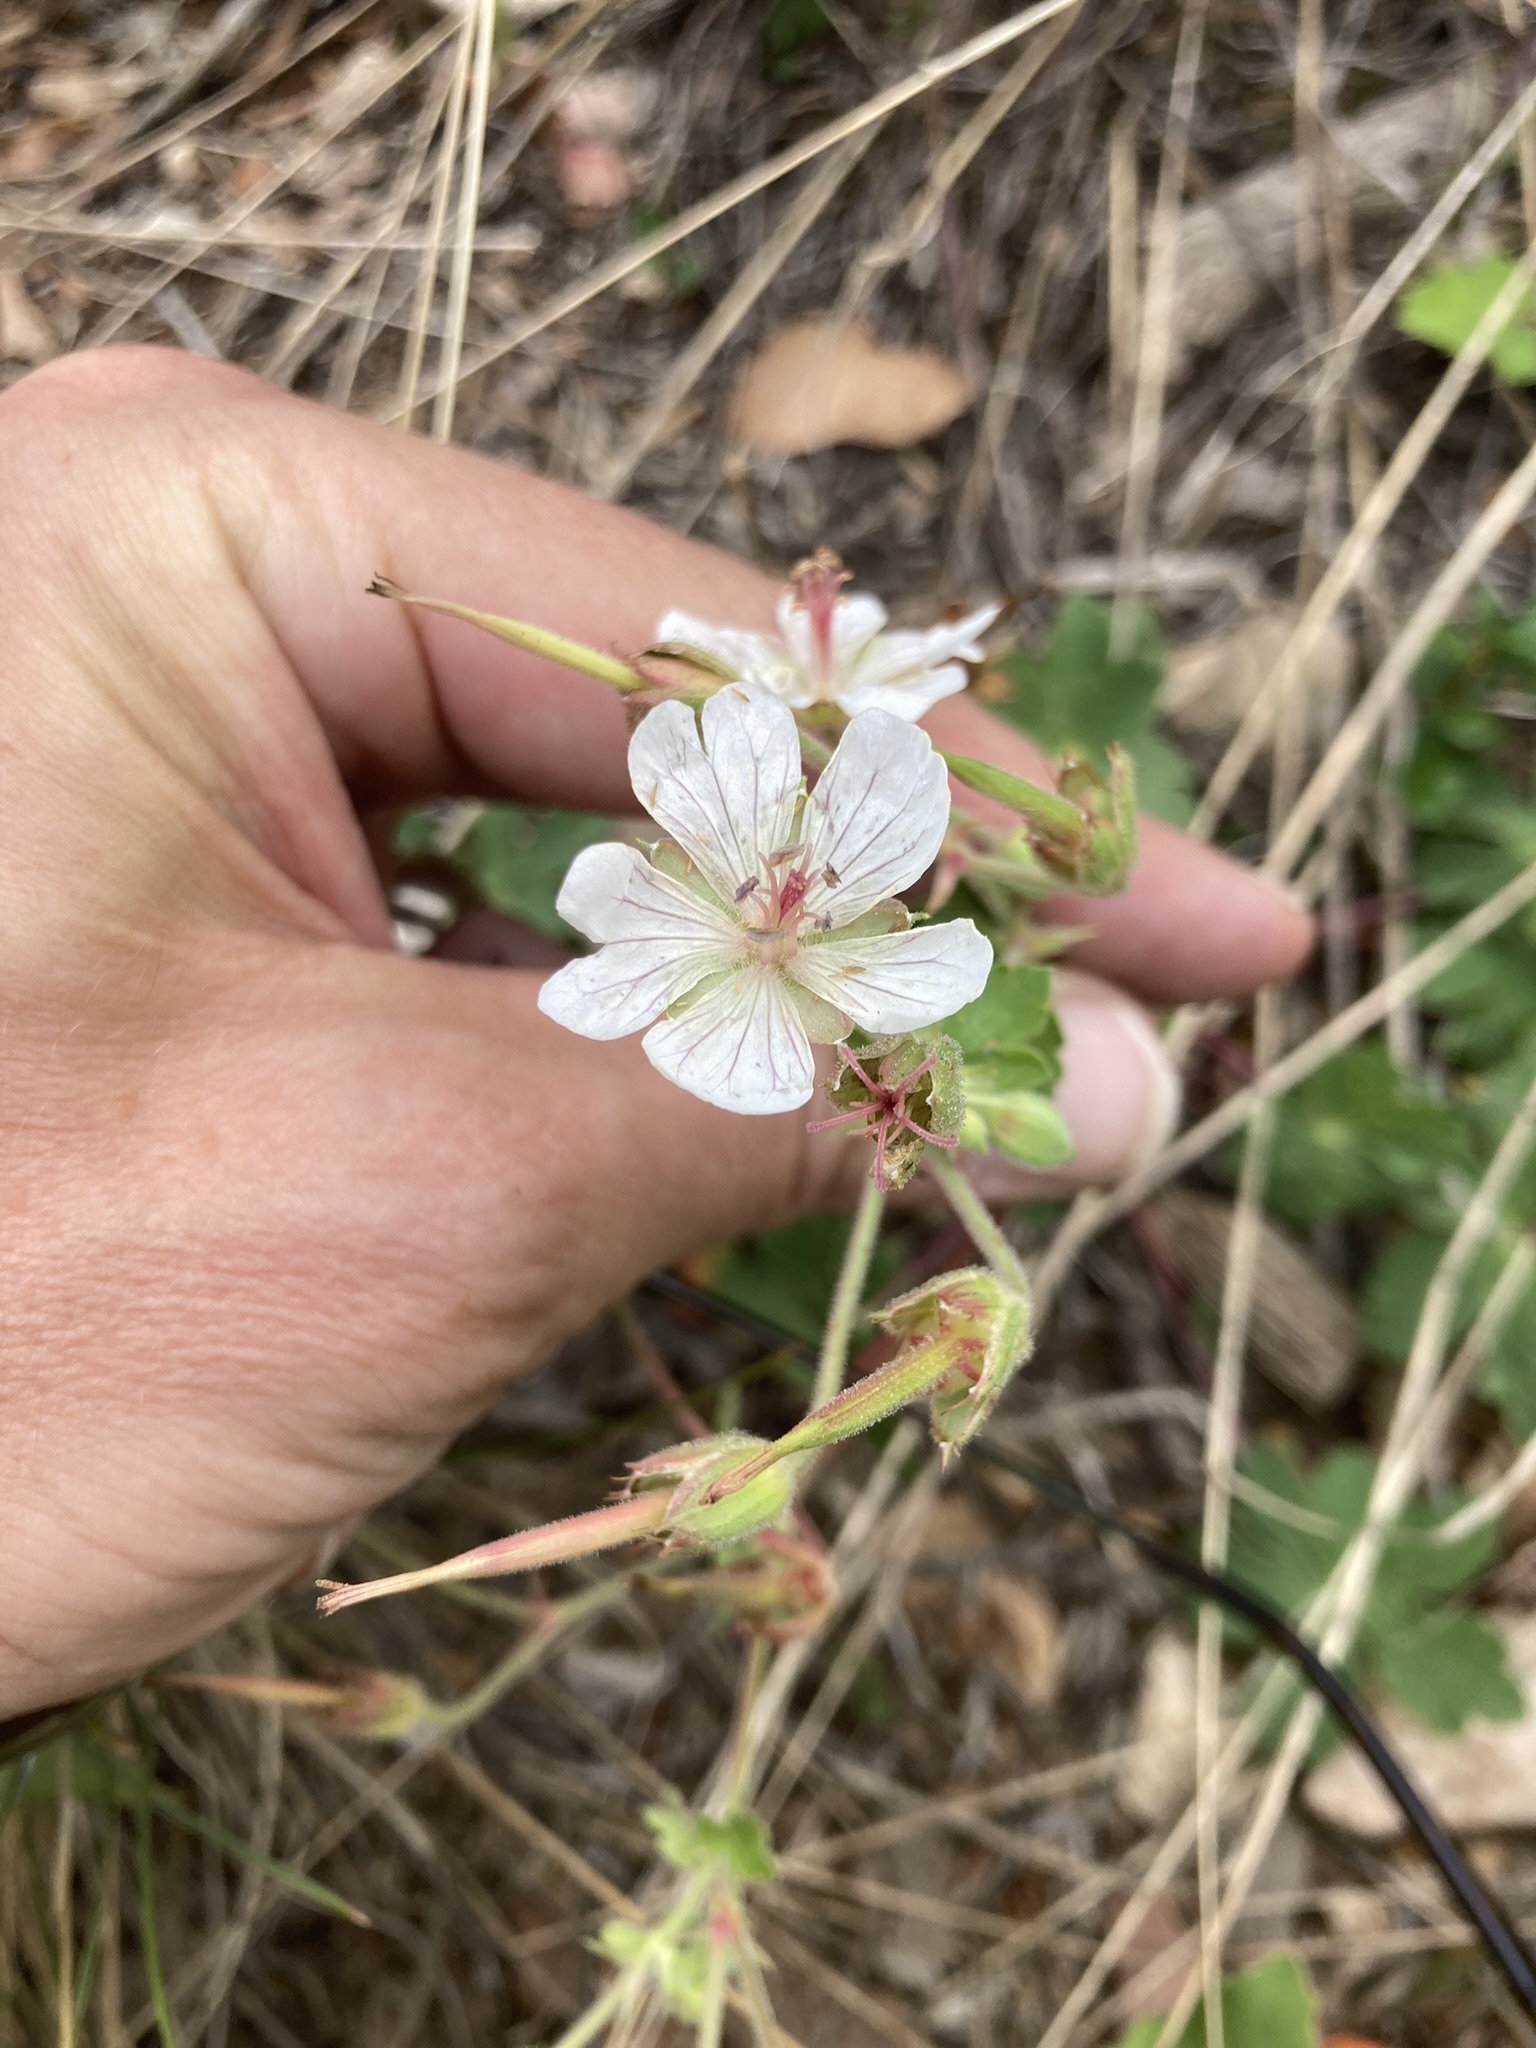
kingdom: Plantae
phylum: Tracheophyta
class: Magnoliopsida
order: Geraniales
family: Geraniaceae
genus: Geranium
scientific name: Geranium richardsonii
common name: Richardson's crane's-bill
